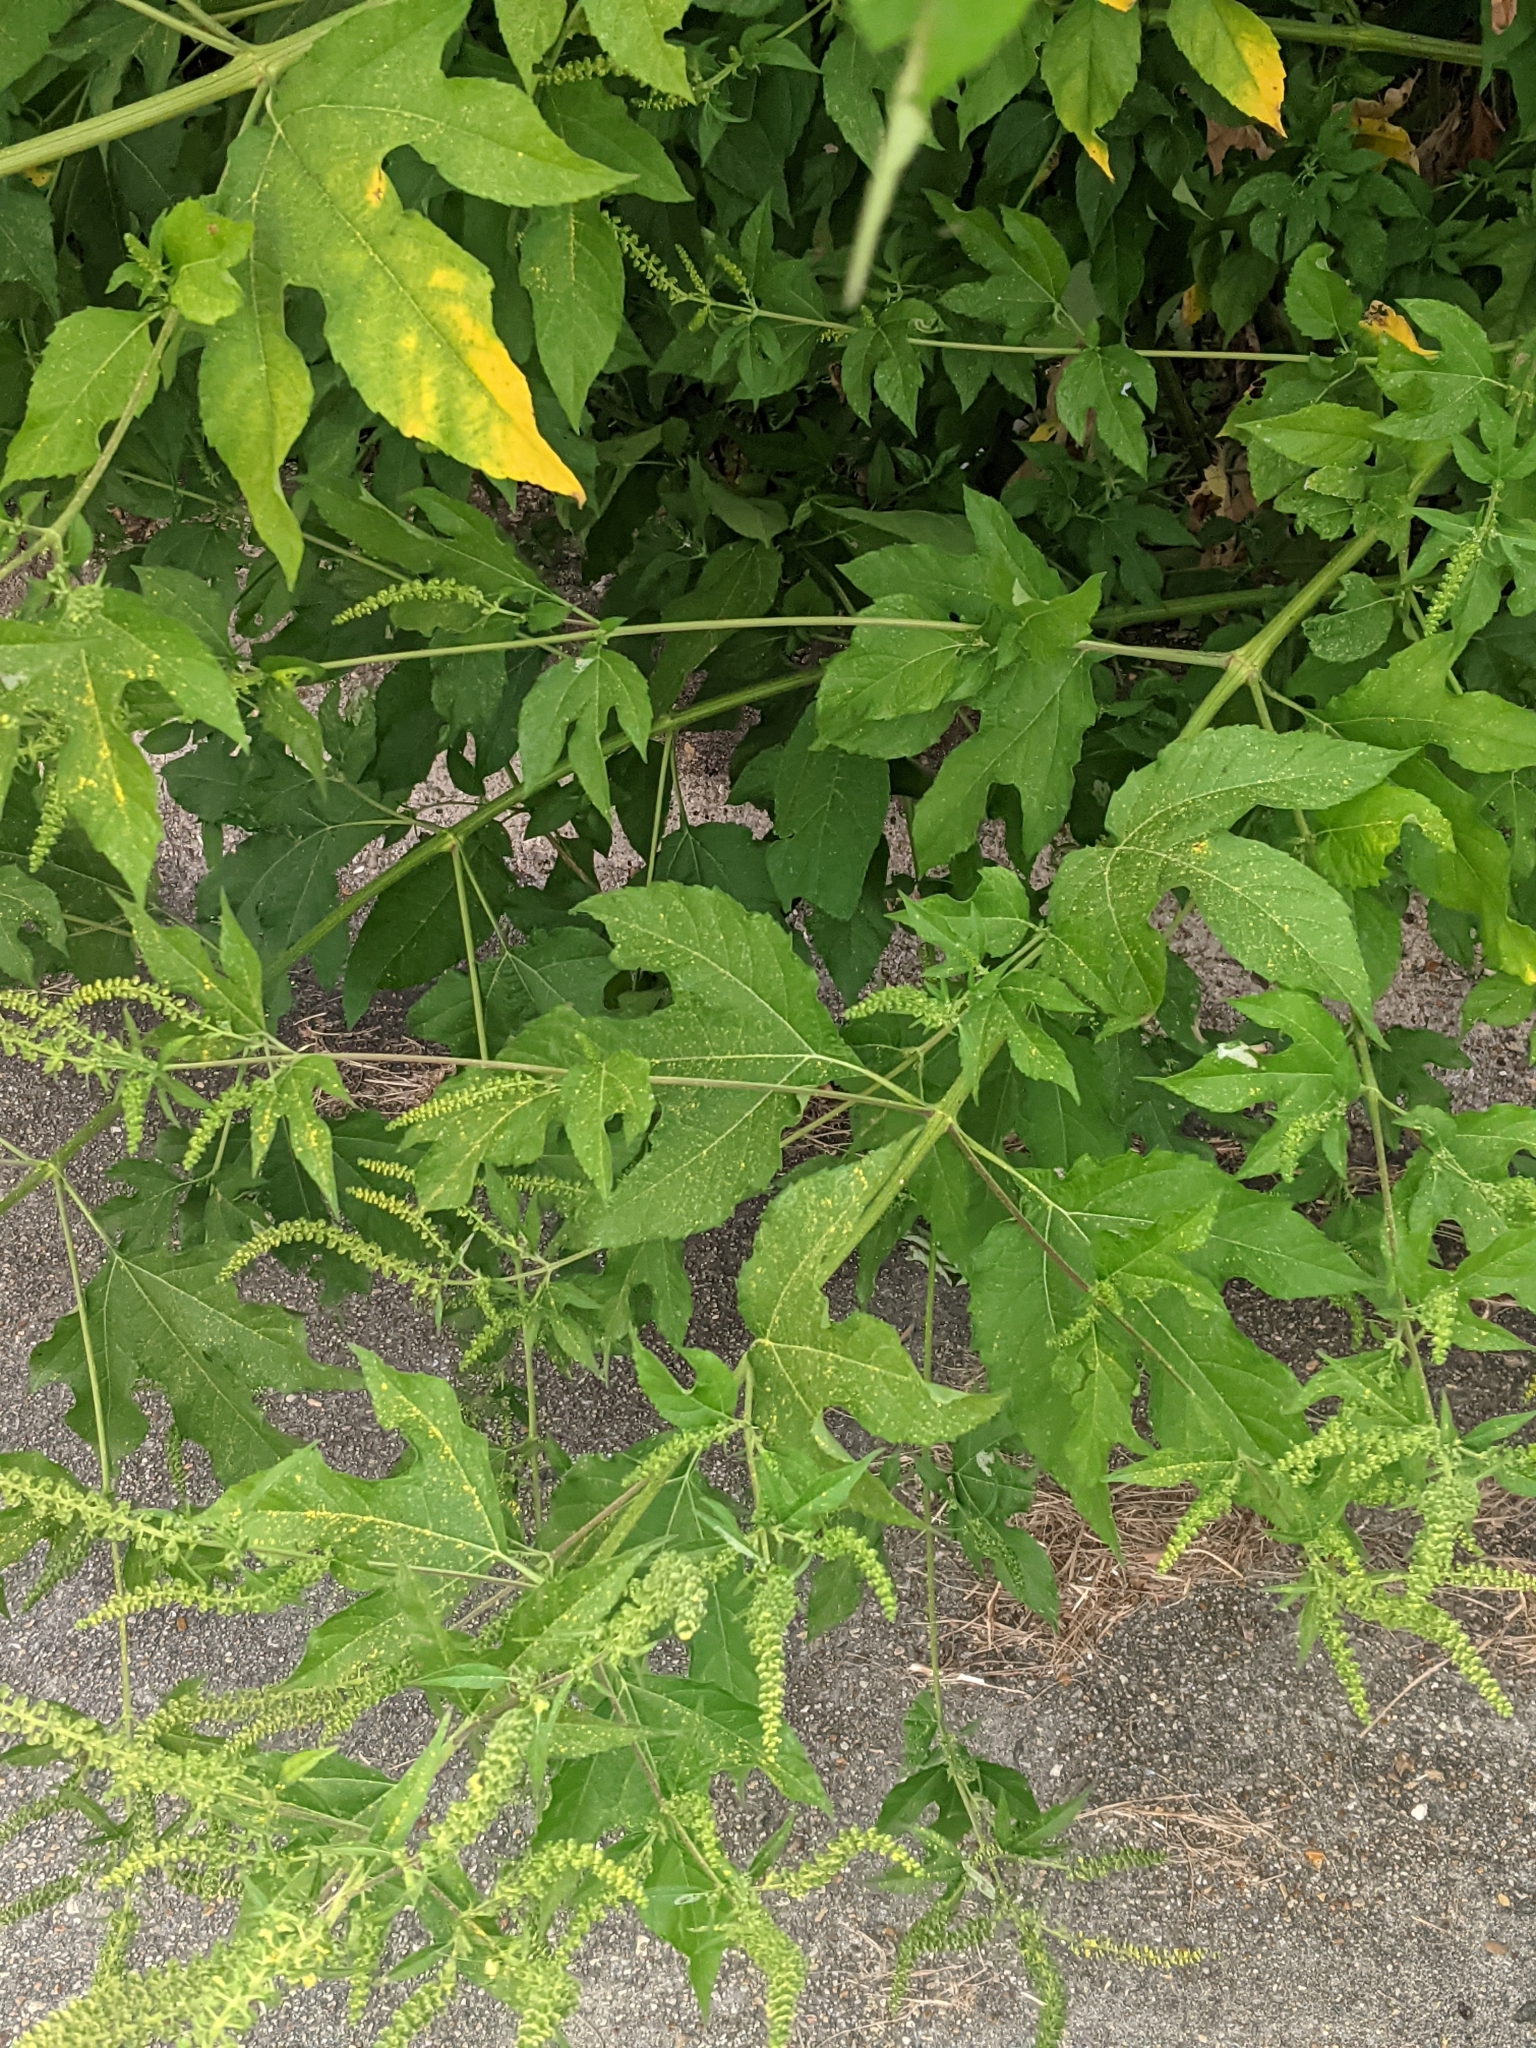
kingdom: Plantae
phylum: Tracheophyta
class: Magnoliopsida
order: Asterales
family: Asteraceae
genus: Ambrosia
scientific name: Ambrosia trifida
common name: Giant ragweed
